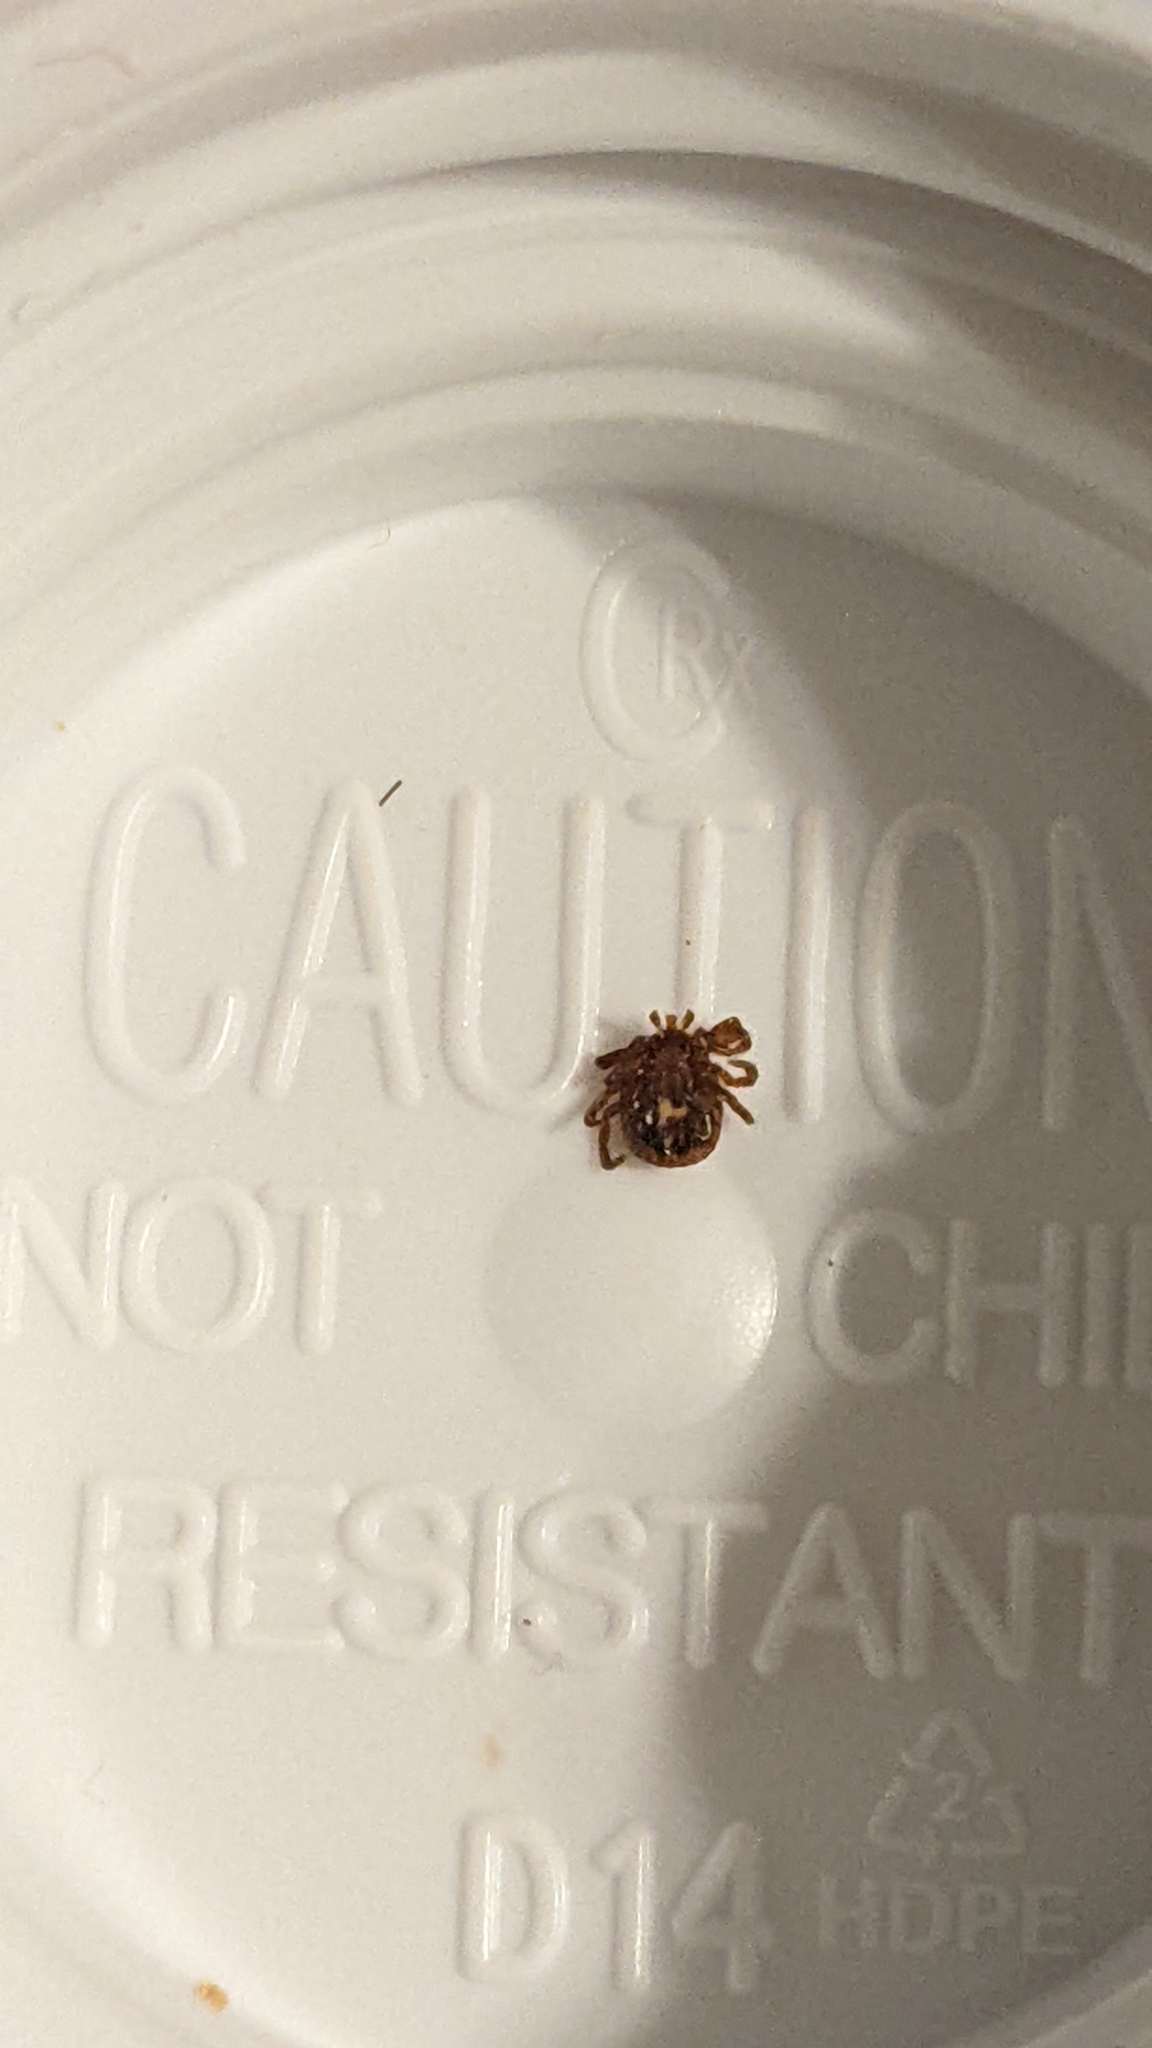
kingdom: Animalia
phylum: Arthropoda
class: Arachnida
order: Ixodida
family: Ixodidae
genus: Amblyomma
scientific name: Amblyomma americanum
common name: Lone star tick
